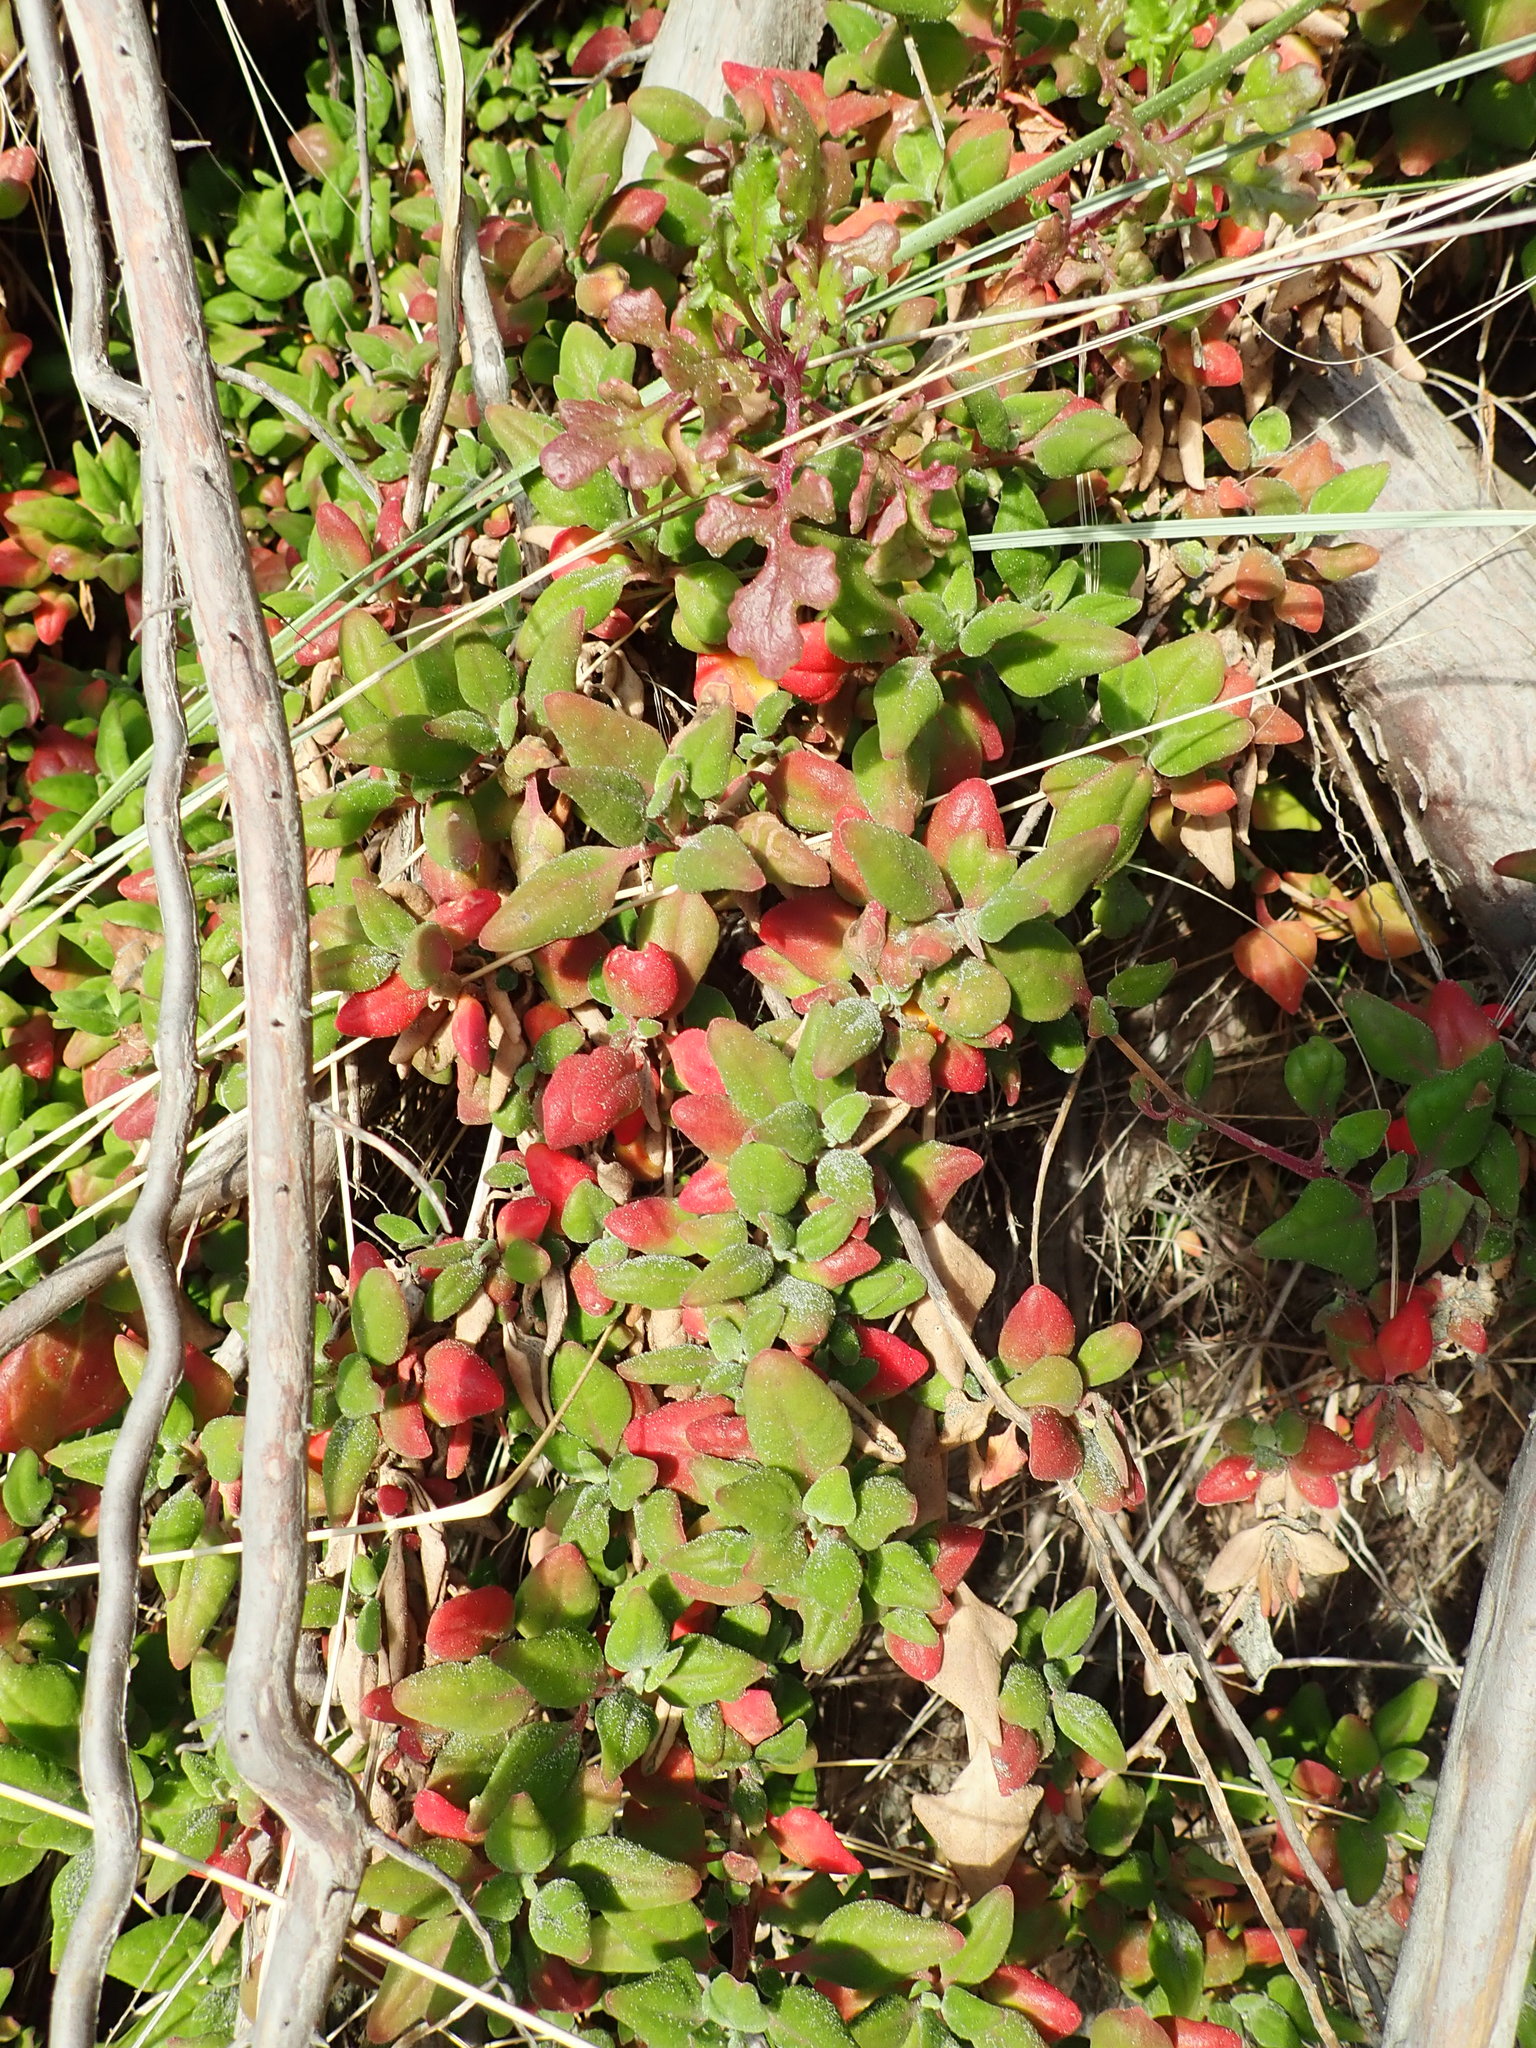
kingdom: Plantae
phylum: Tracheophyta
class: Magnoliopsida
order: Caryophyllales
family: Aizoaceae
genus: Tetragonia
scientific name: Tetragonia implexicoma
